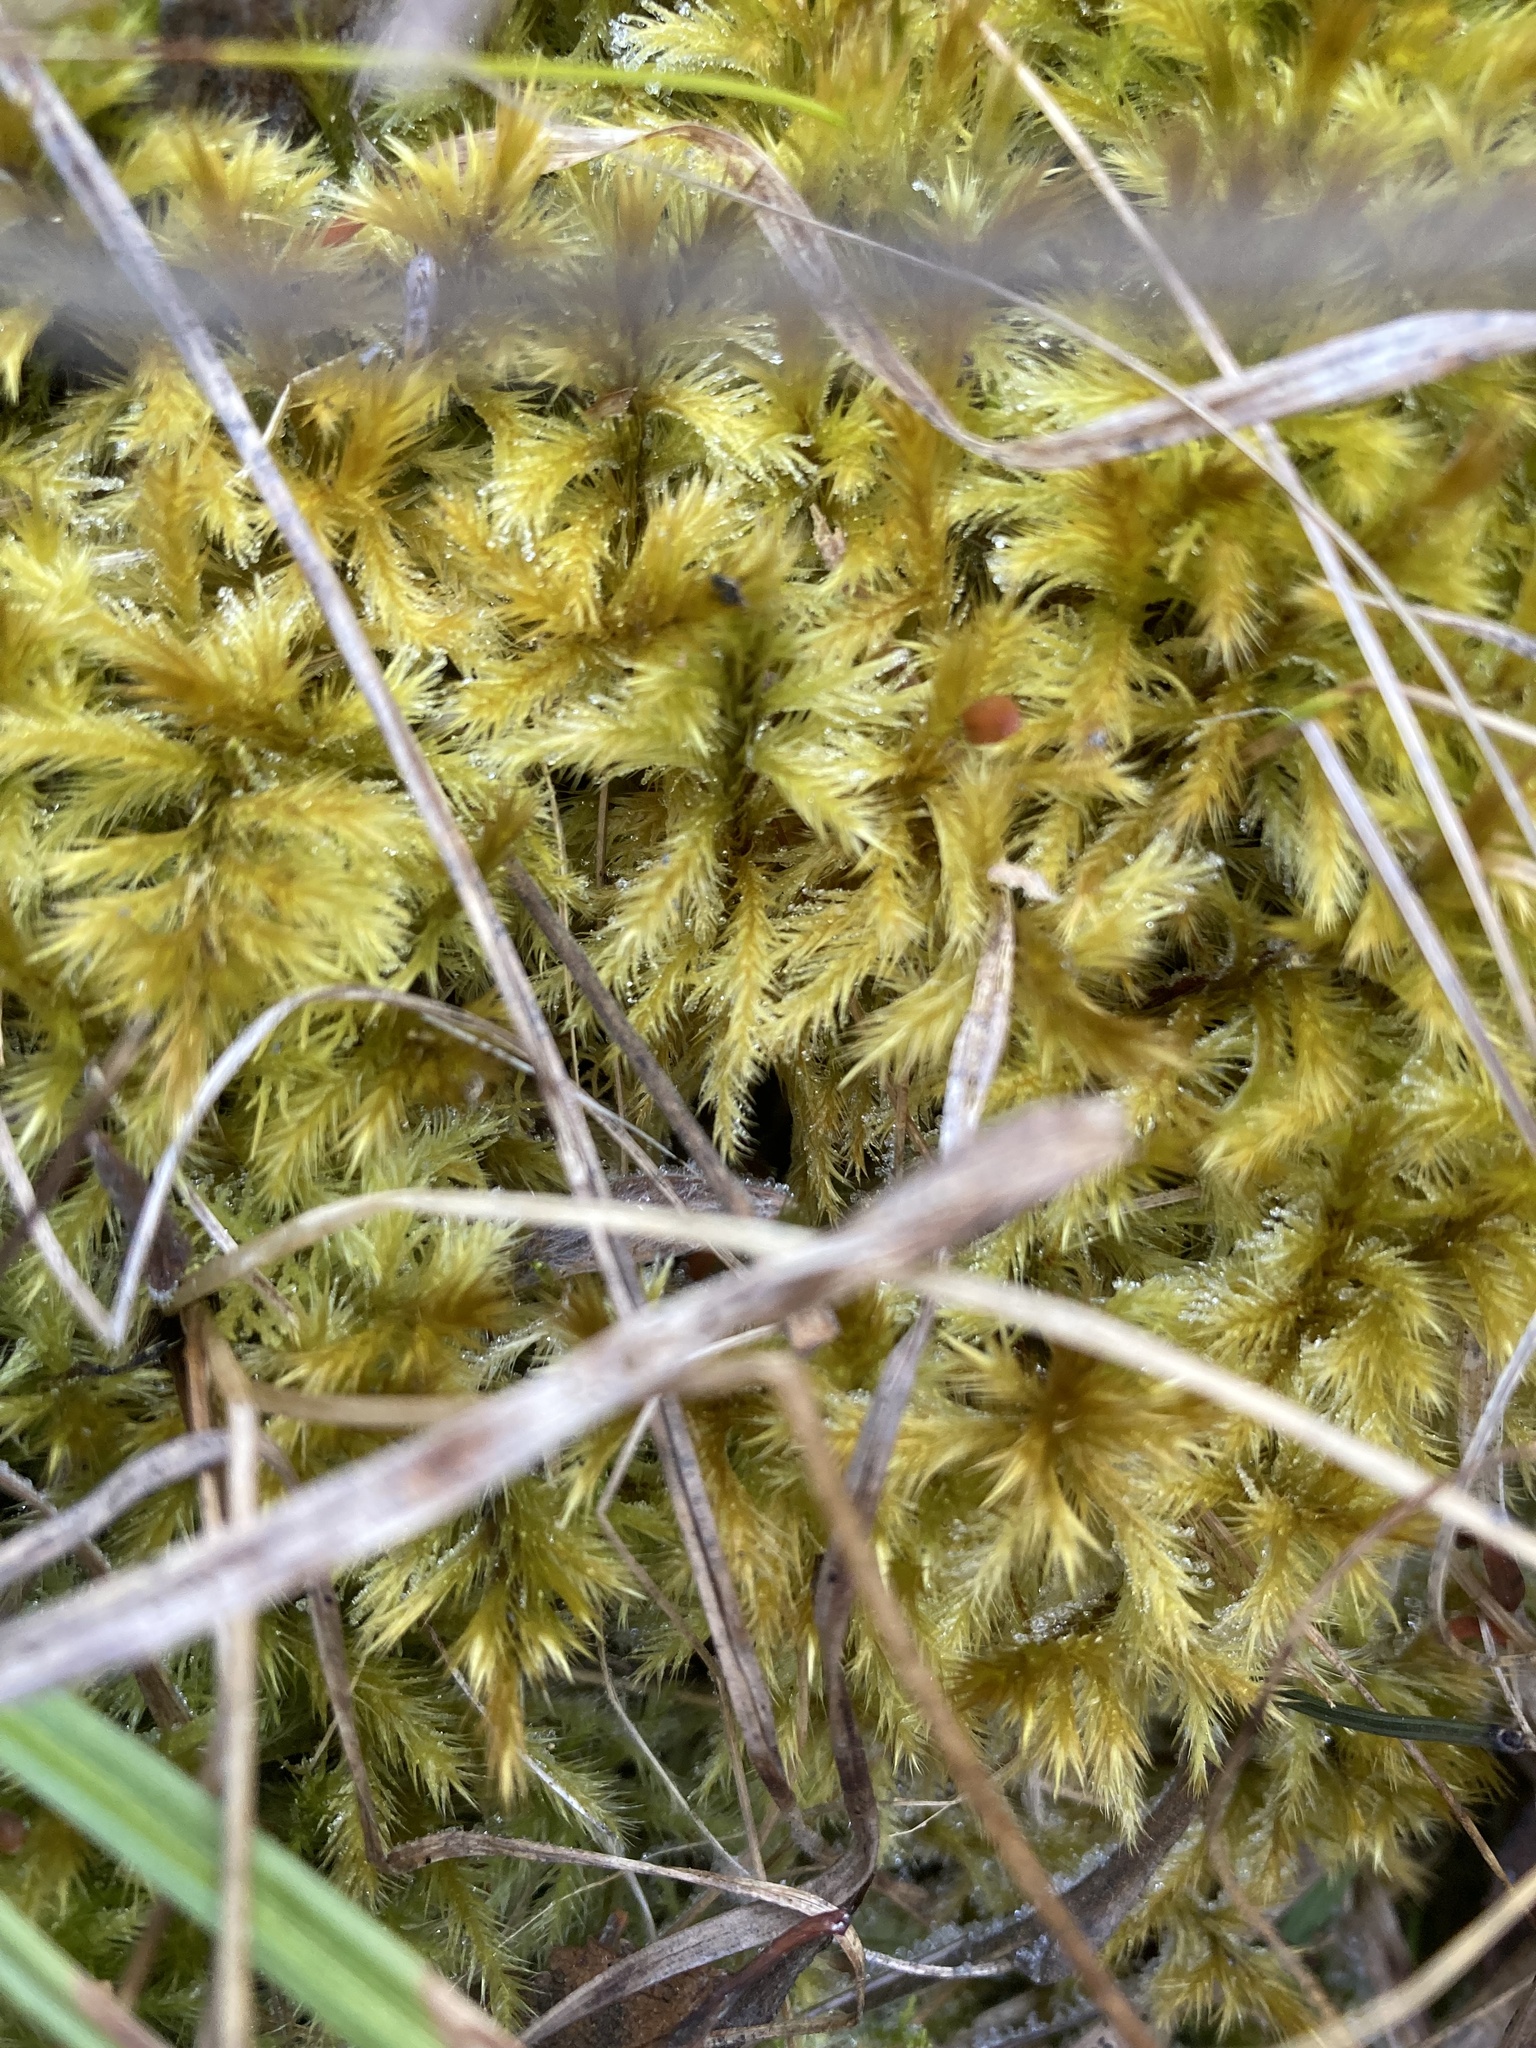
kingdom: Plantae
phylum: Bryophyta
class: Bryopsida
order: Hypnales
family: Amblystegiaceae
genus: Tomentypnum
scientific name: Tomentypnum nitens
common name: Golden fuzzy fen moss
